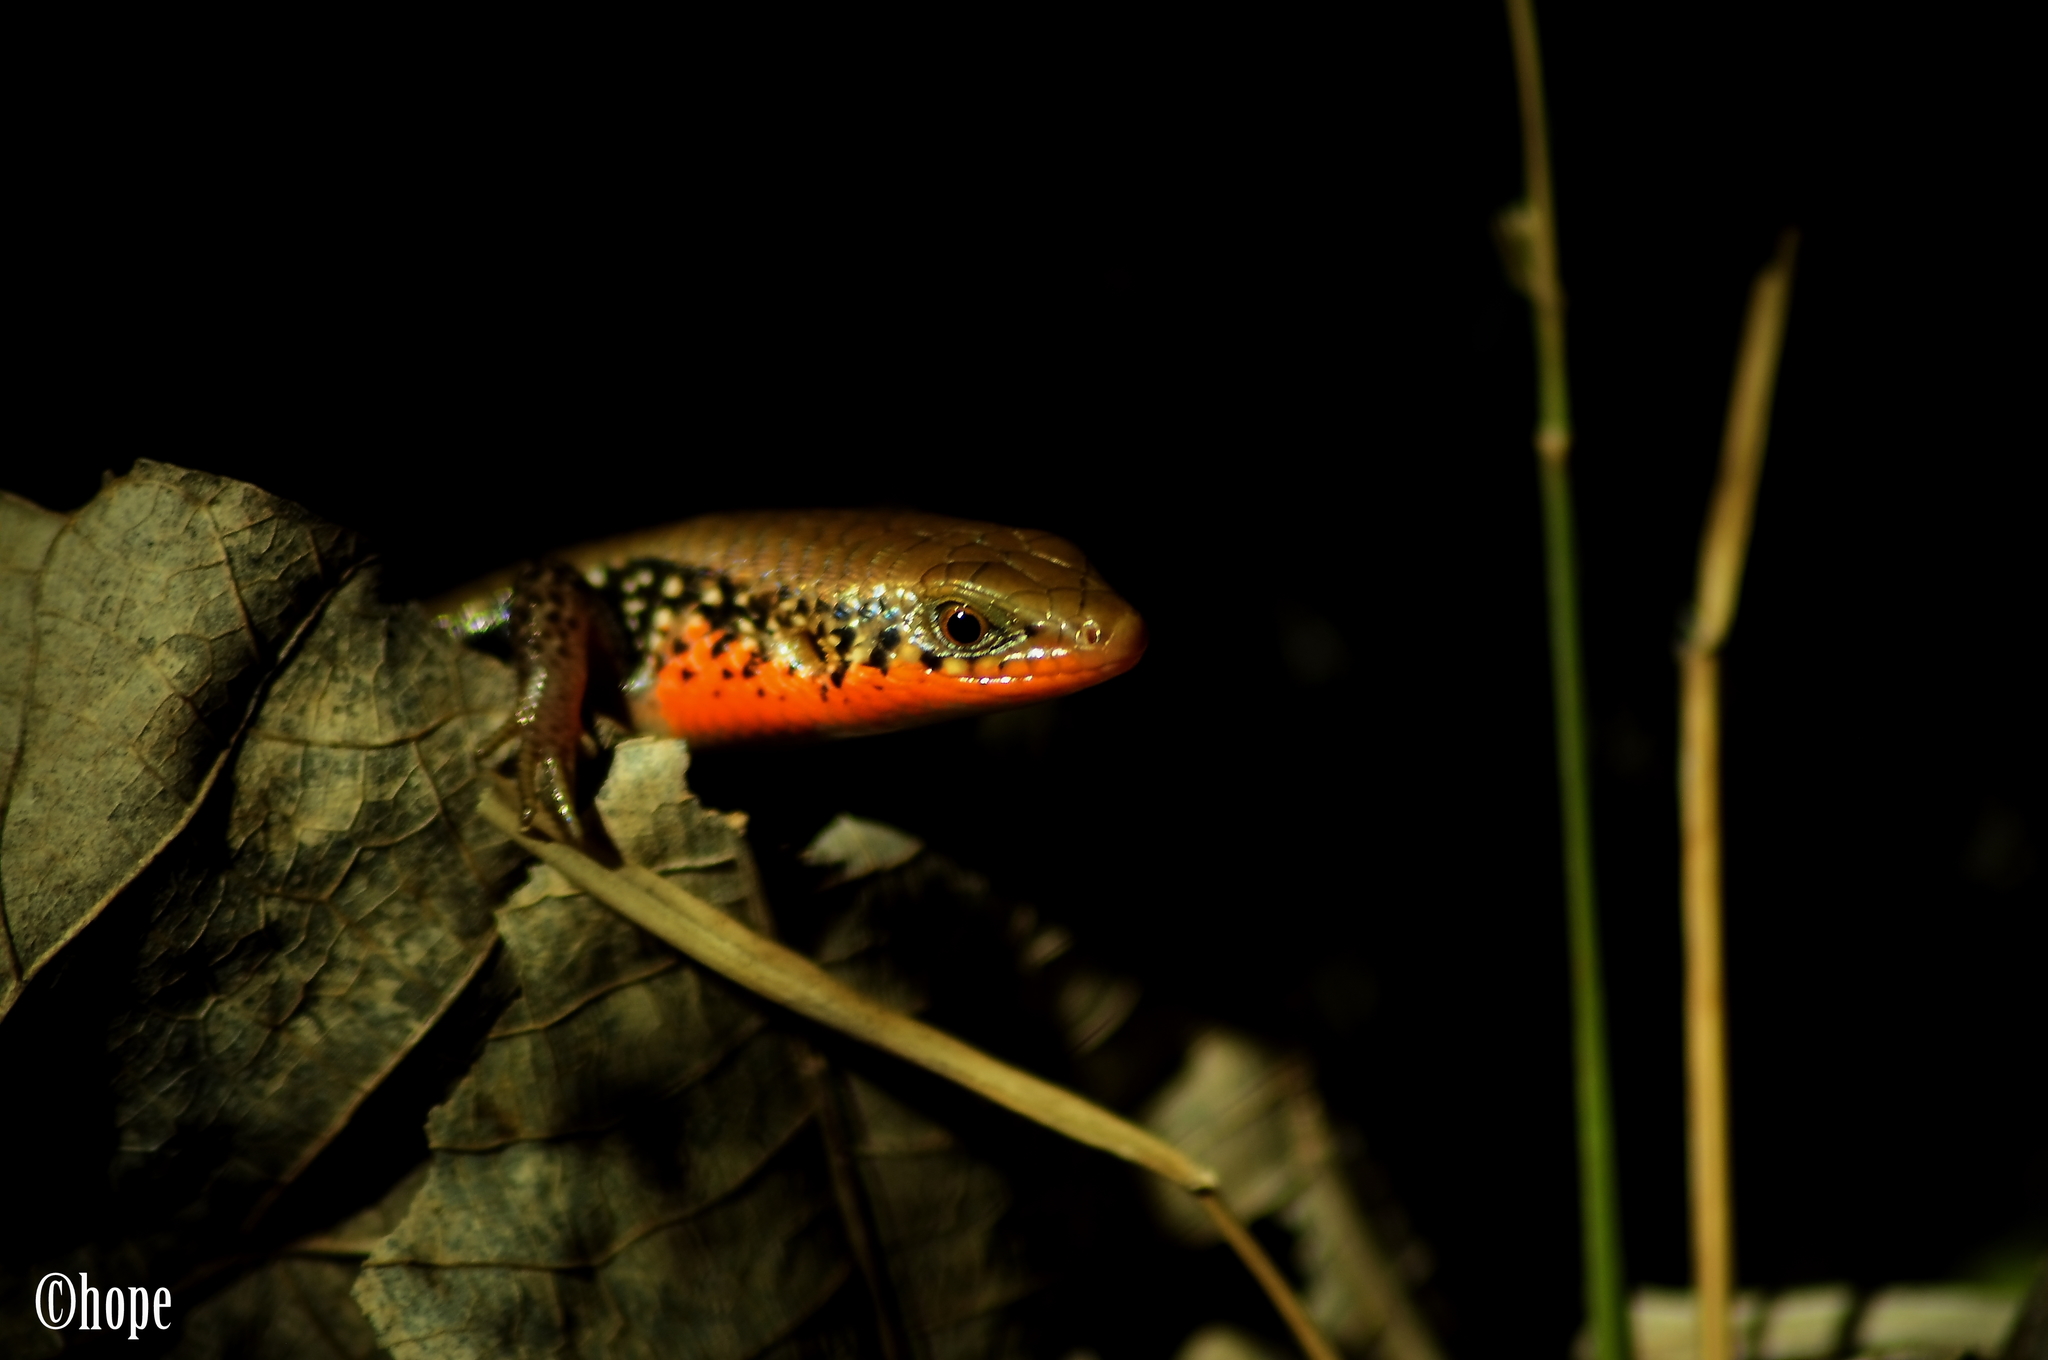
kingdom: Animalia
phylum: Chordata
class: Squamata
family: Scincidae
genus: Eutropis
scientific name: Eutropis macularia
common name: Bronze mabuya
